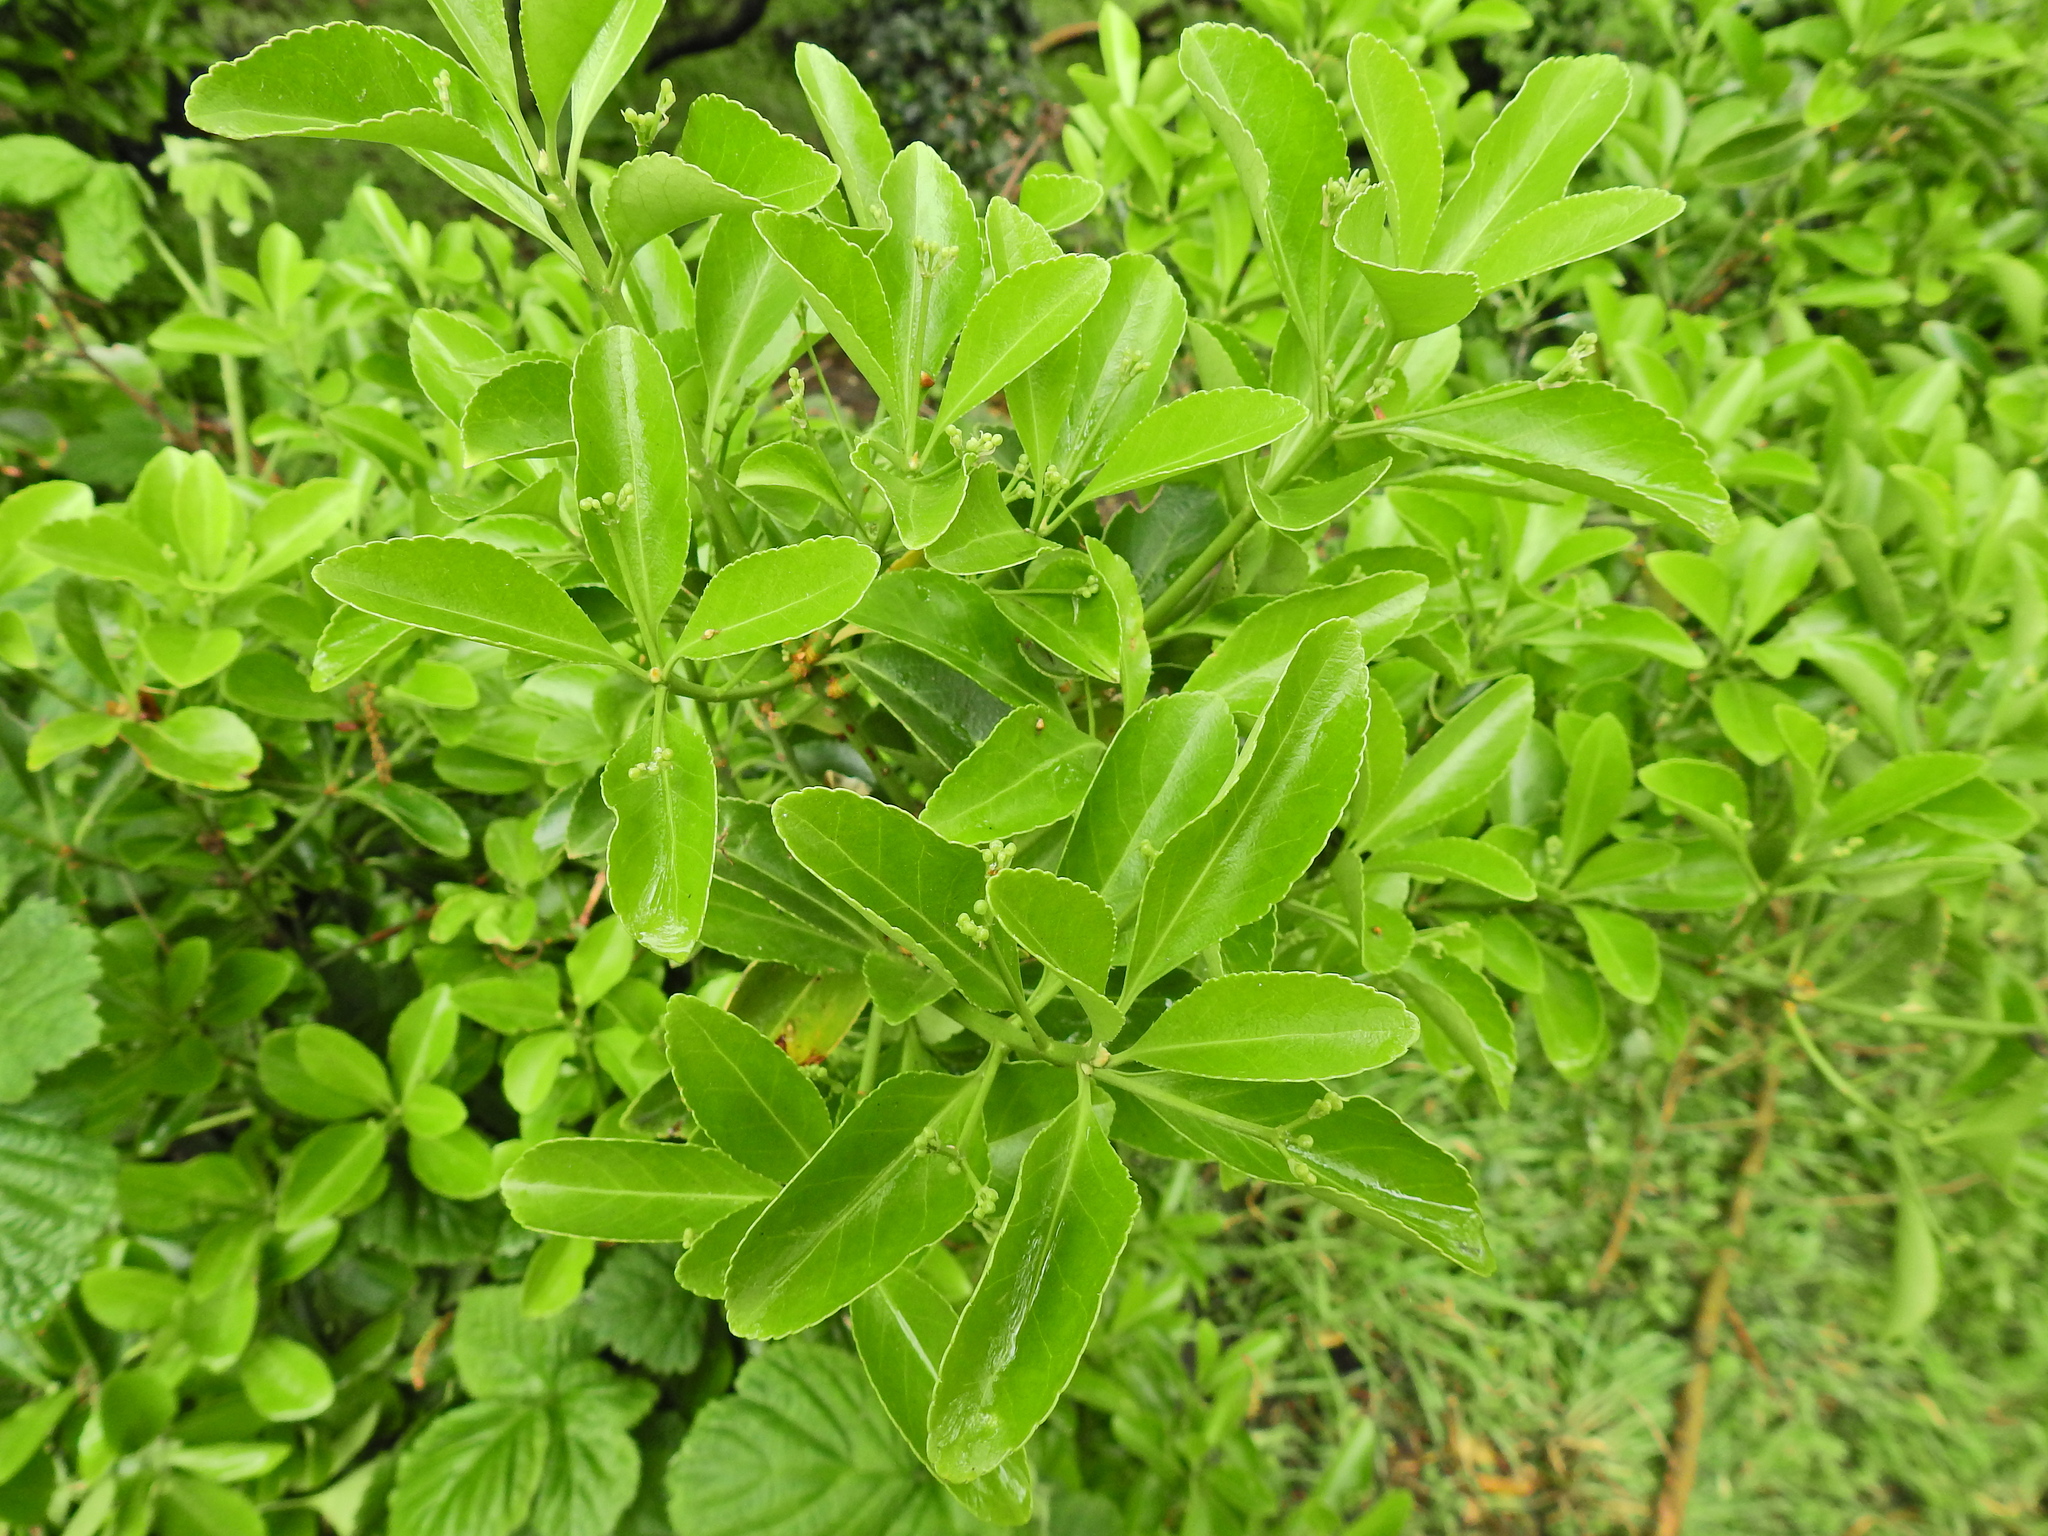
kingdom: Plantae
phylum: Tracheophyta
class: Magnoliopsida
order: Celastrales
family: Celastraceae
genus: Euonymus
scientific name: Euonymus japonicus
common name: Japanese spindletree
